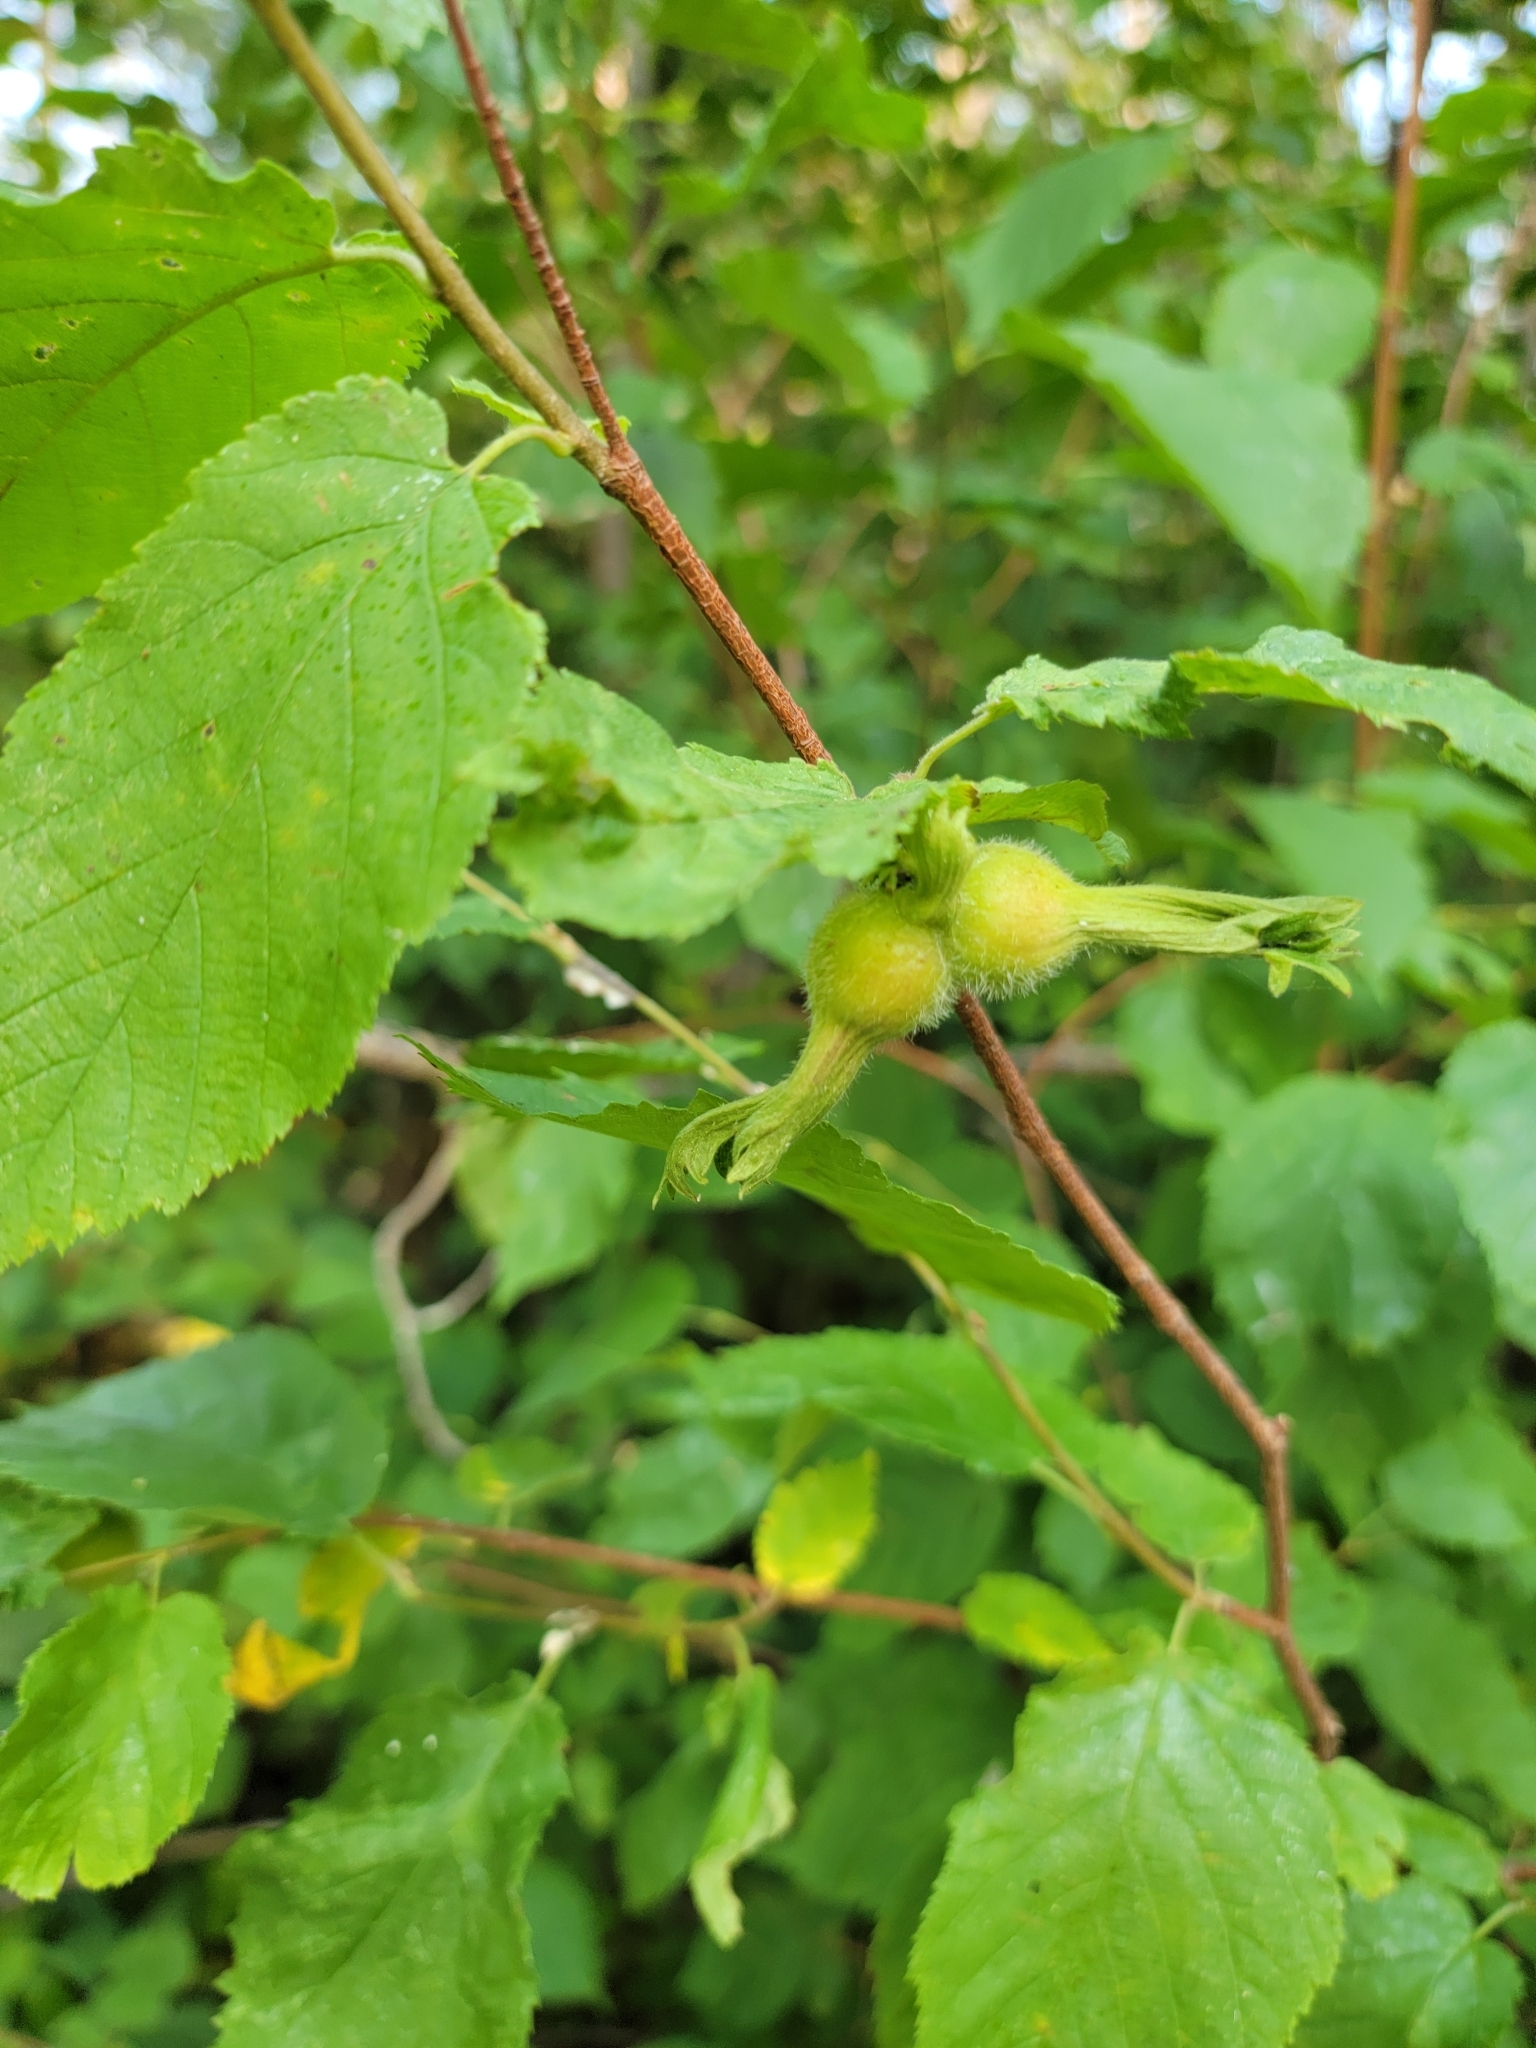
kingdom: Plantae
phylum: Tracheophyta
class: Magnoliopsida
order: Fagales
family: Betulaceae
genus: Corylus
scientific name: Corylus cornuta
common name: Beaked hazel
